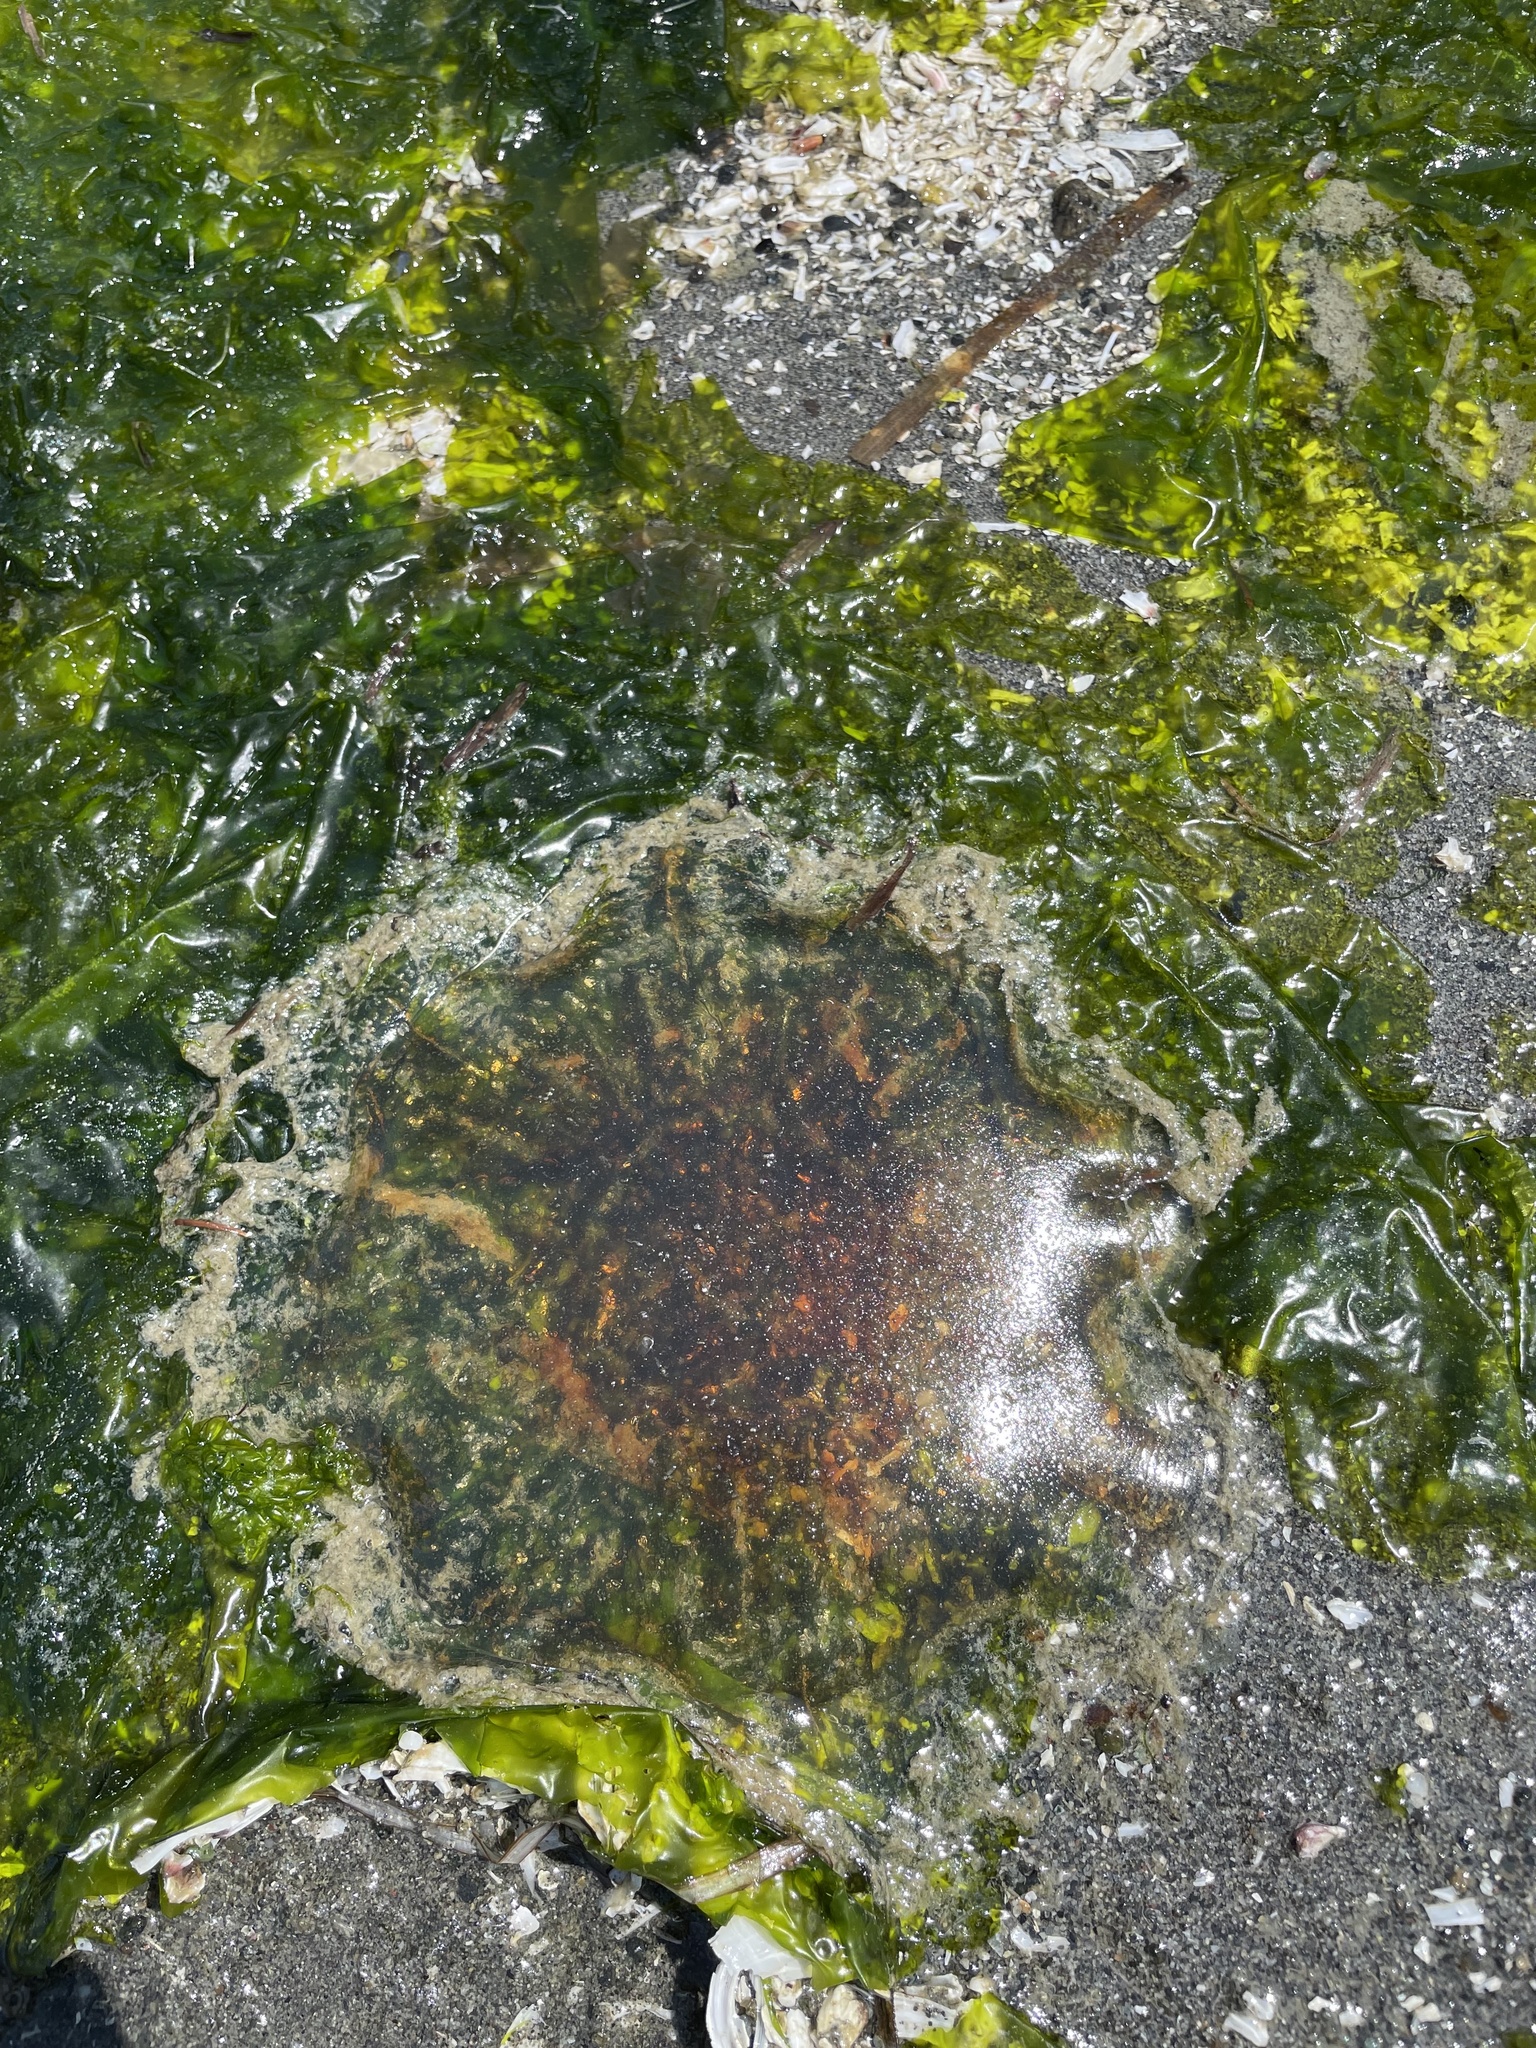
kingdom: Animalia
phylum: Cnidaria
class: Scyphozoa
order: Semaeostomeae
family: Cyaneidae
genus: Cyanea
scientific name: Cyanea ferruginea
